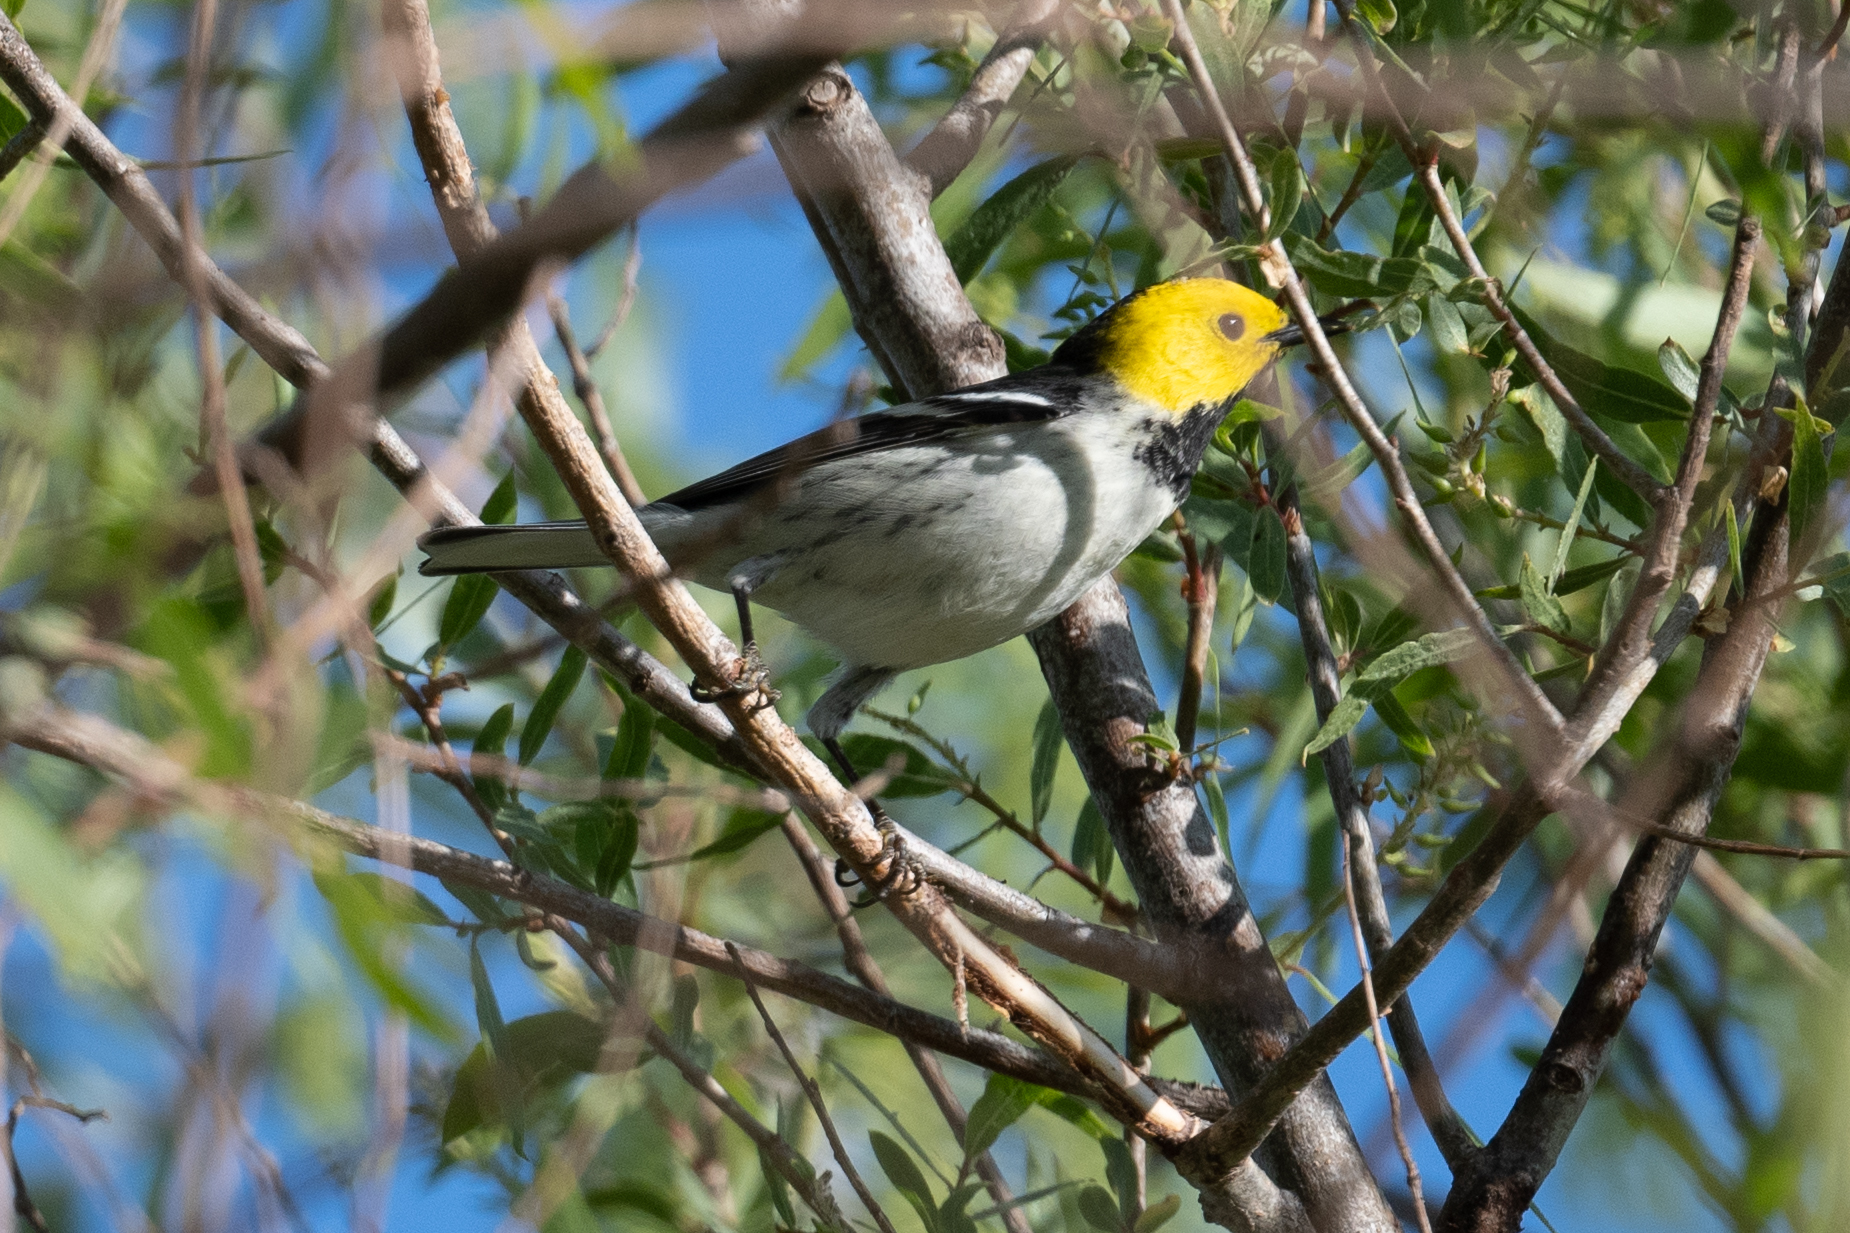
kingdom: Animalia
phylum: Chordata
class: Aves
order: Passeriformes
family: Parulidae
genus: Setophaga
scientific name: Setophaga occidentalis
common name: Hermit warbler
